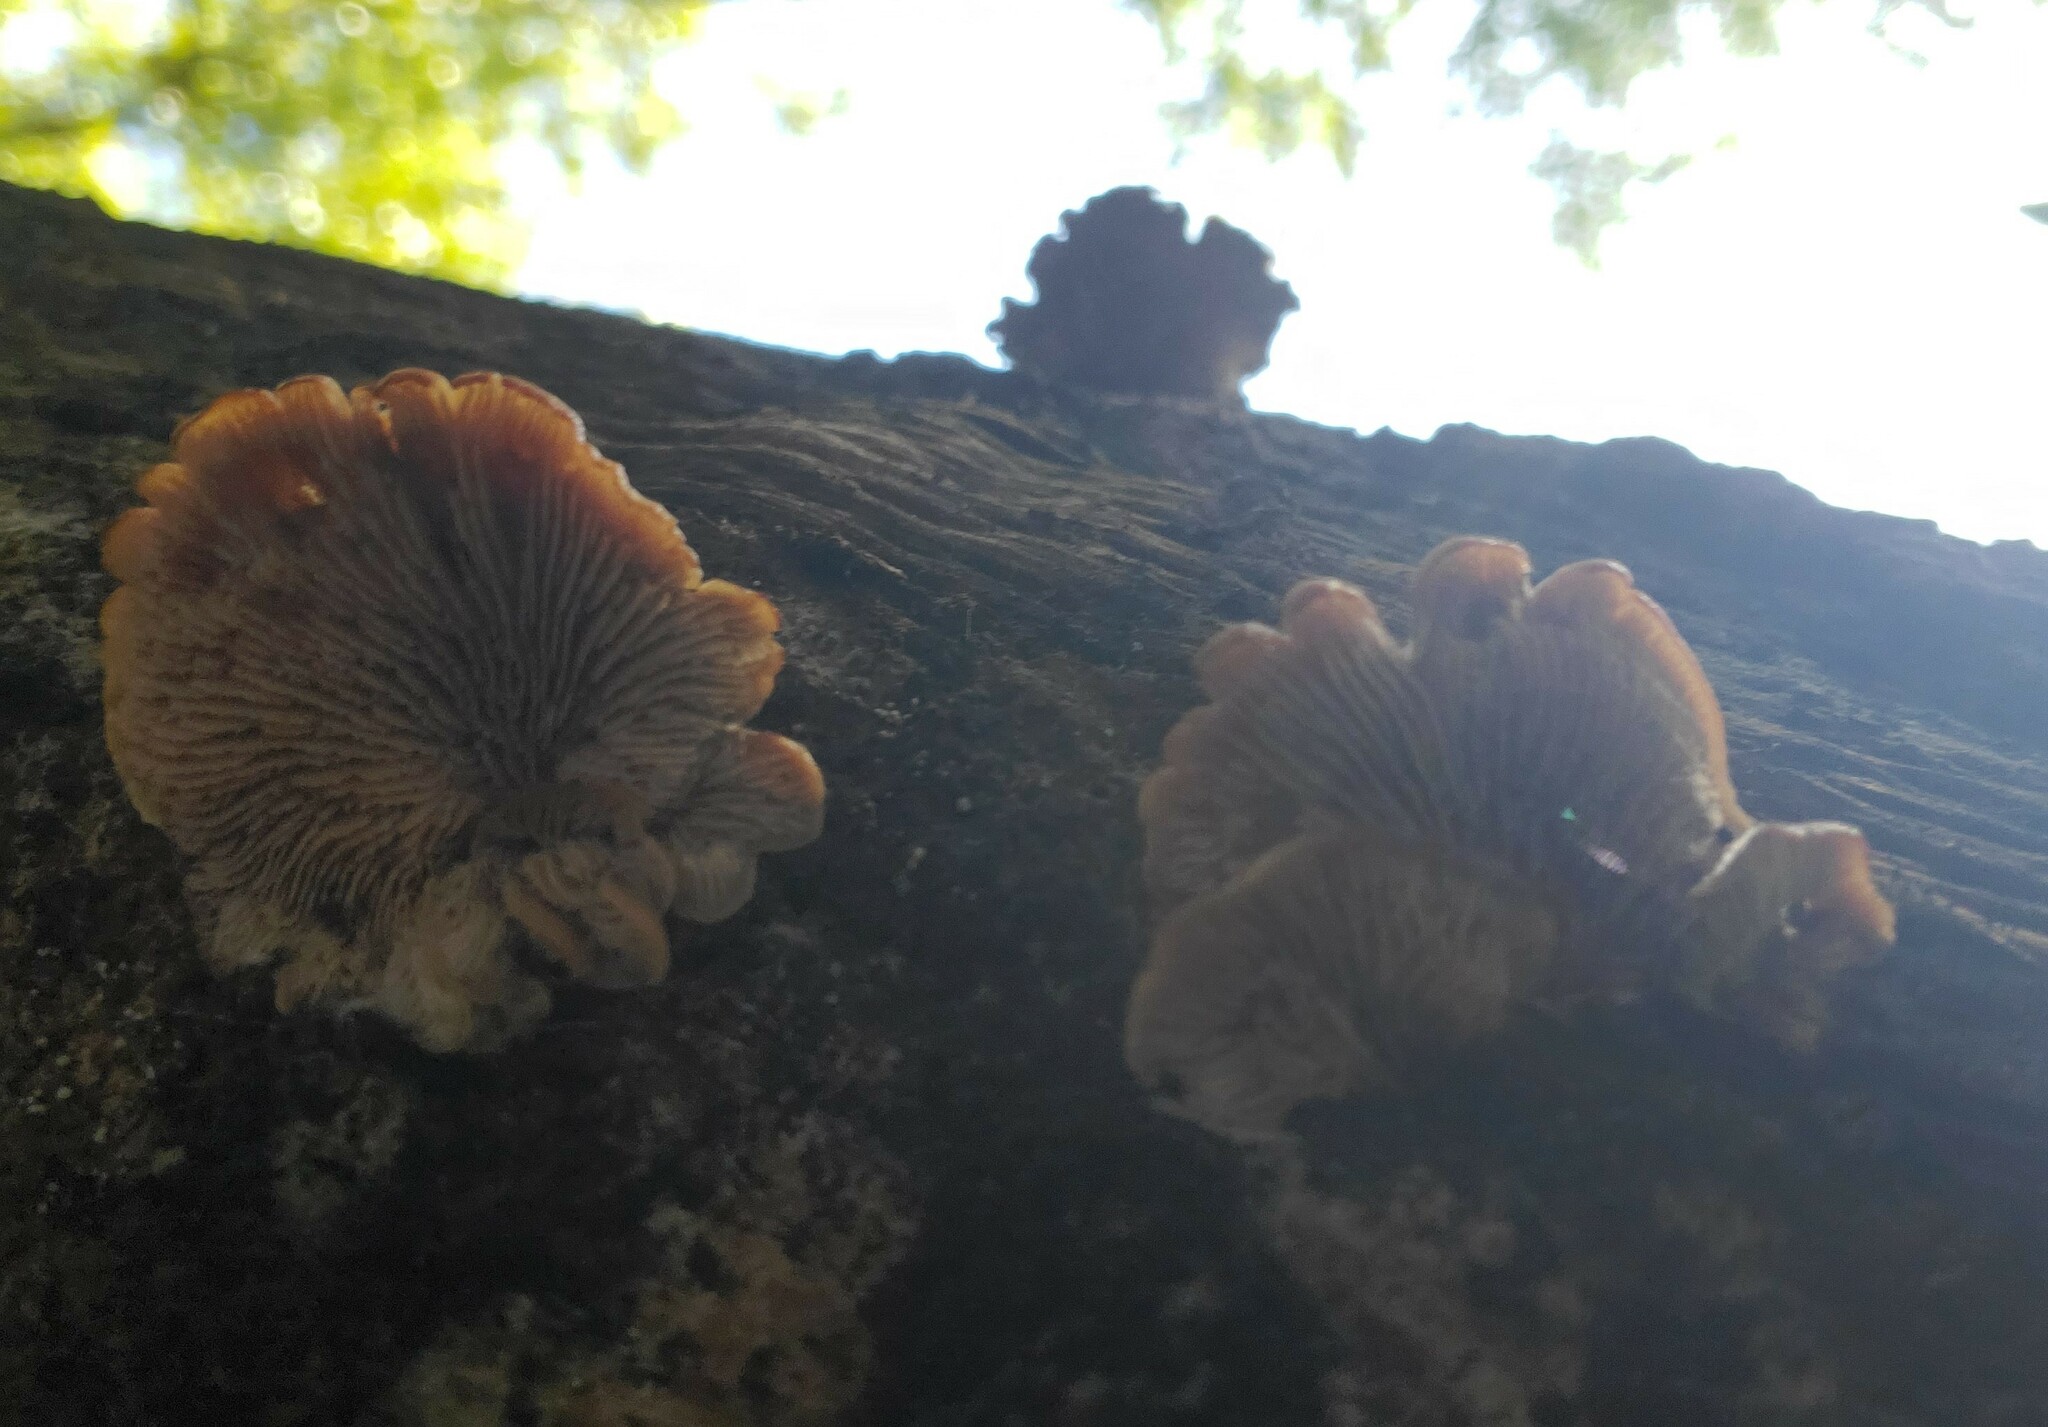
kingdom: Fungi
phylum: Basidiomycota
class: Agaricomycetes
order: Russulales
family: Auriscalpiaceae
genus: Lentinellus
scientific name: Lentinellus ursinus
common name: Bear lentinus
